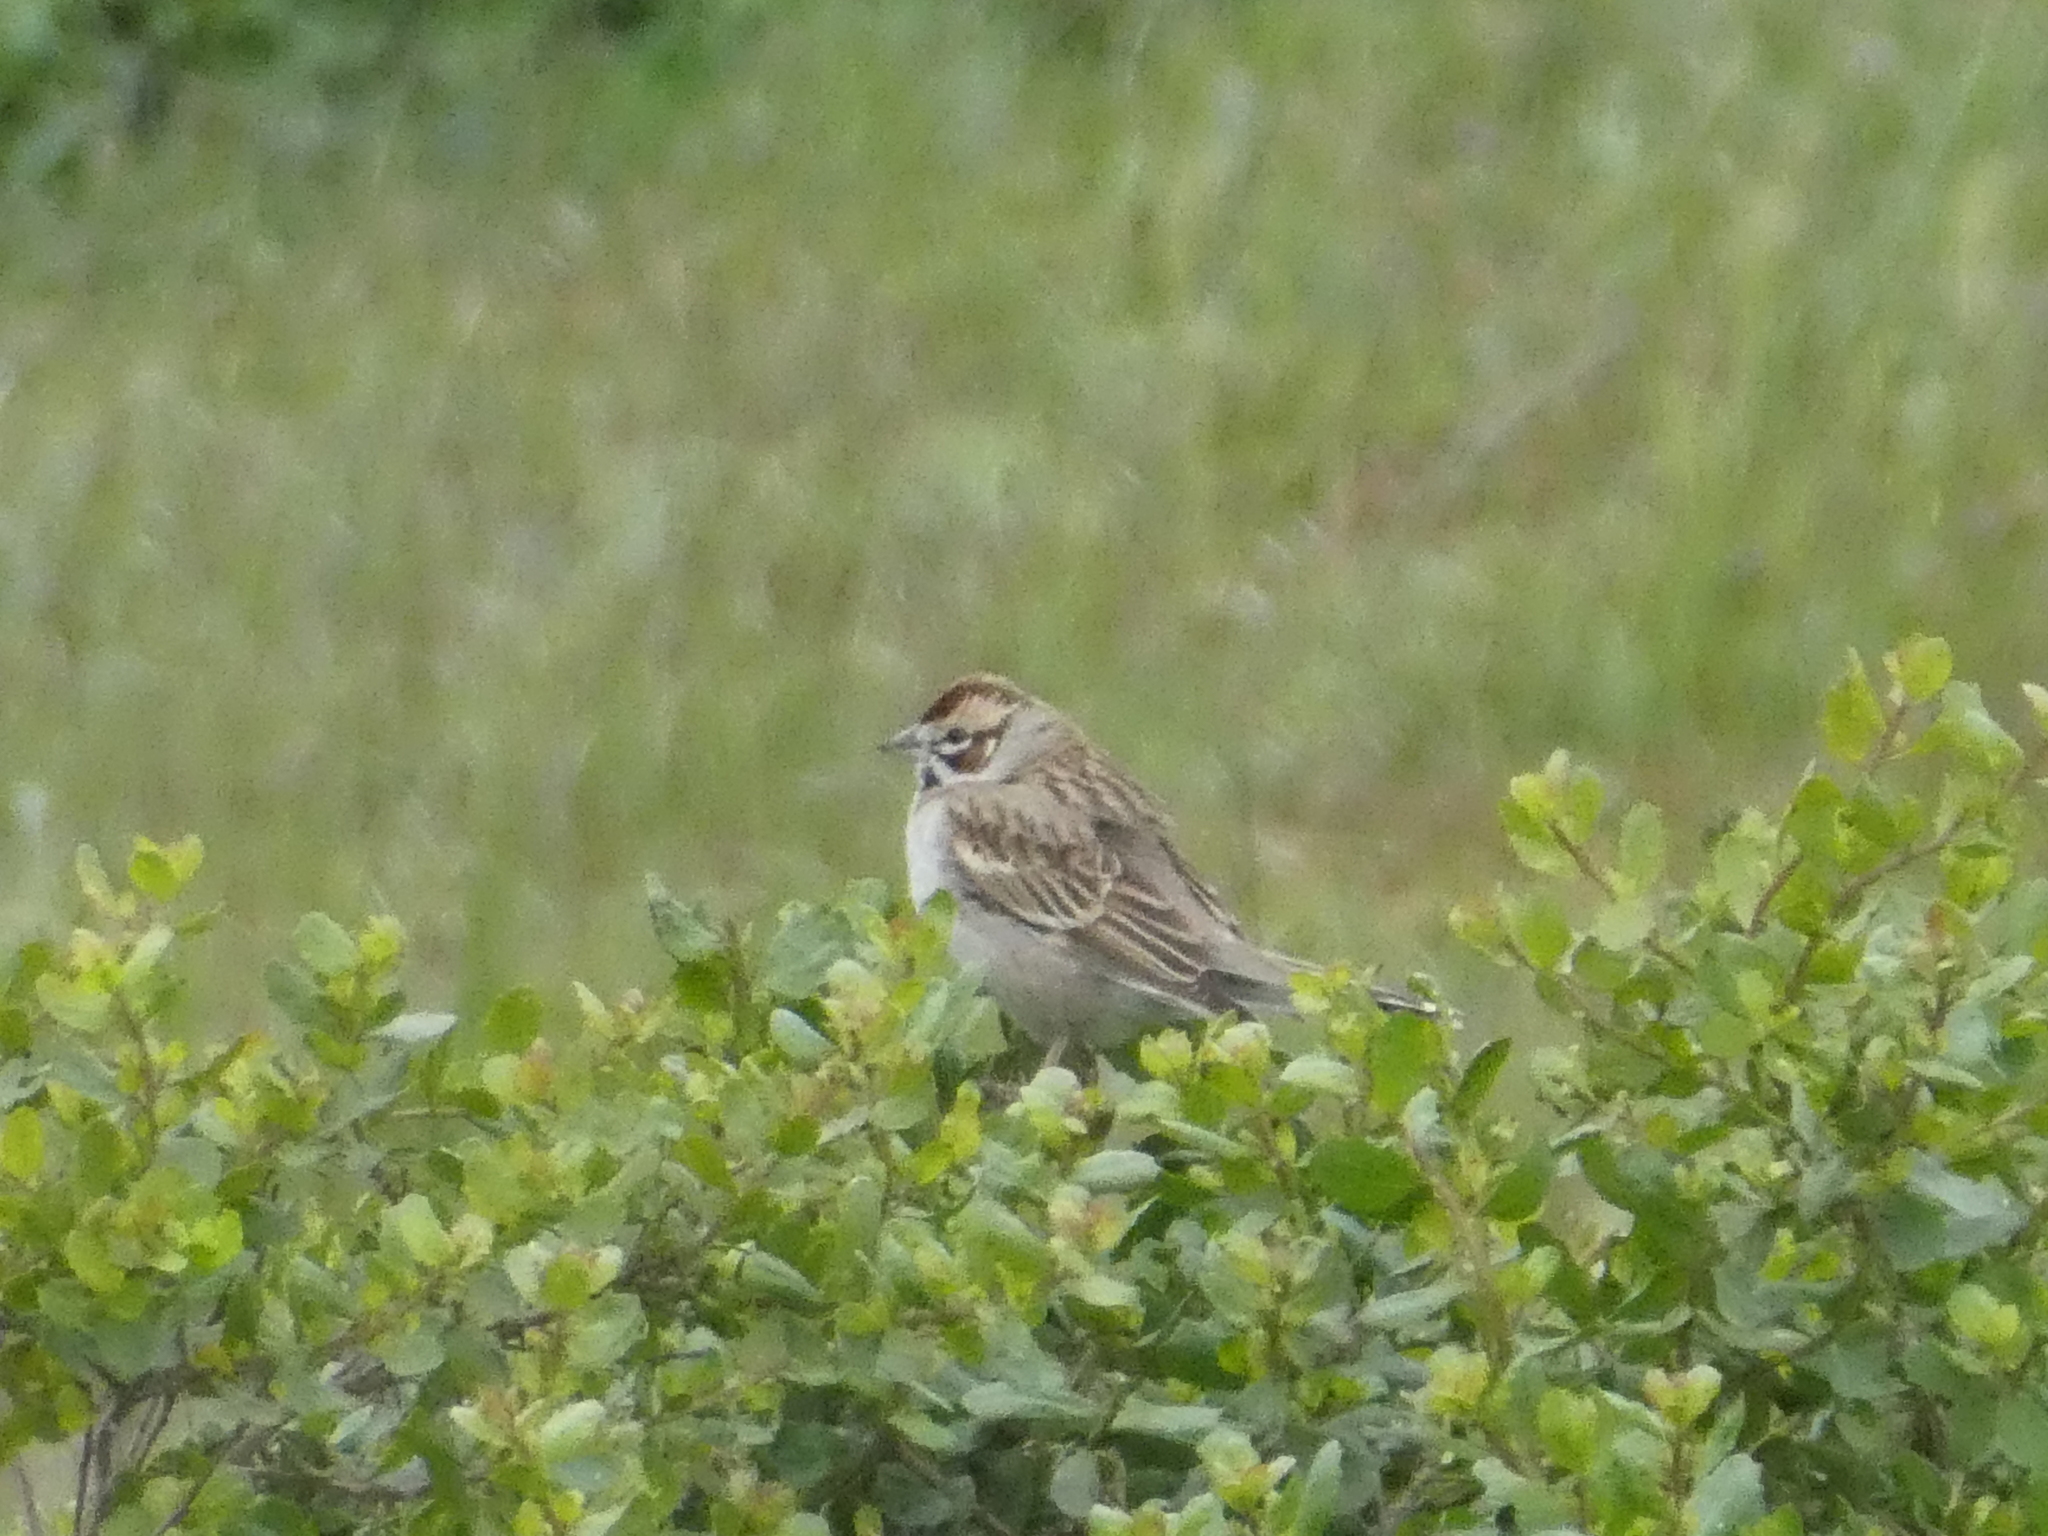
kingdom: Animalia
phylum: Chordata
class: Aves
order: Passeriformes
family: Passerellidae
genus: Chondestes
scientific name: Chondestes grammacus
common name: Lark sparrow
